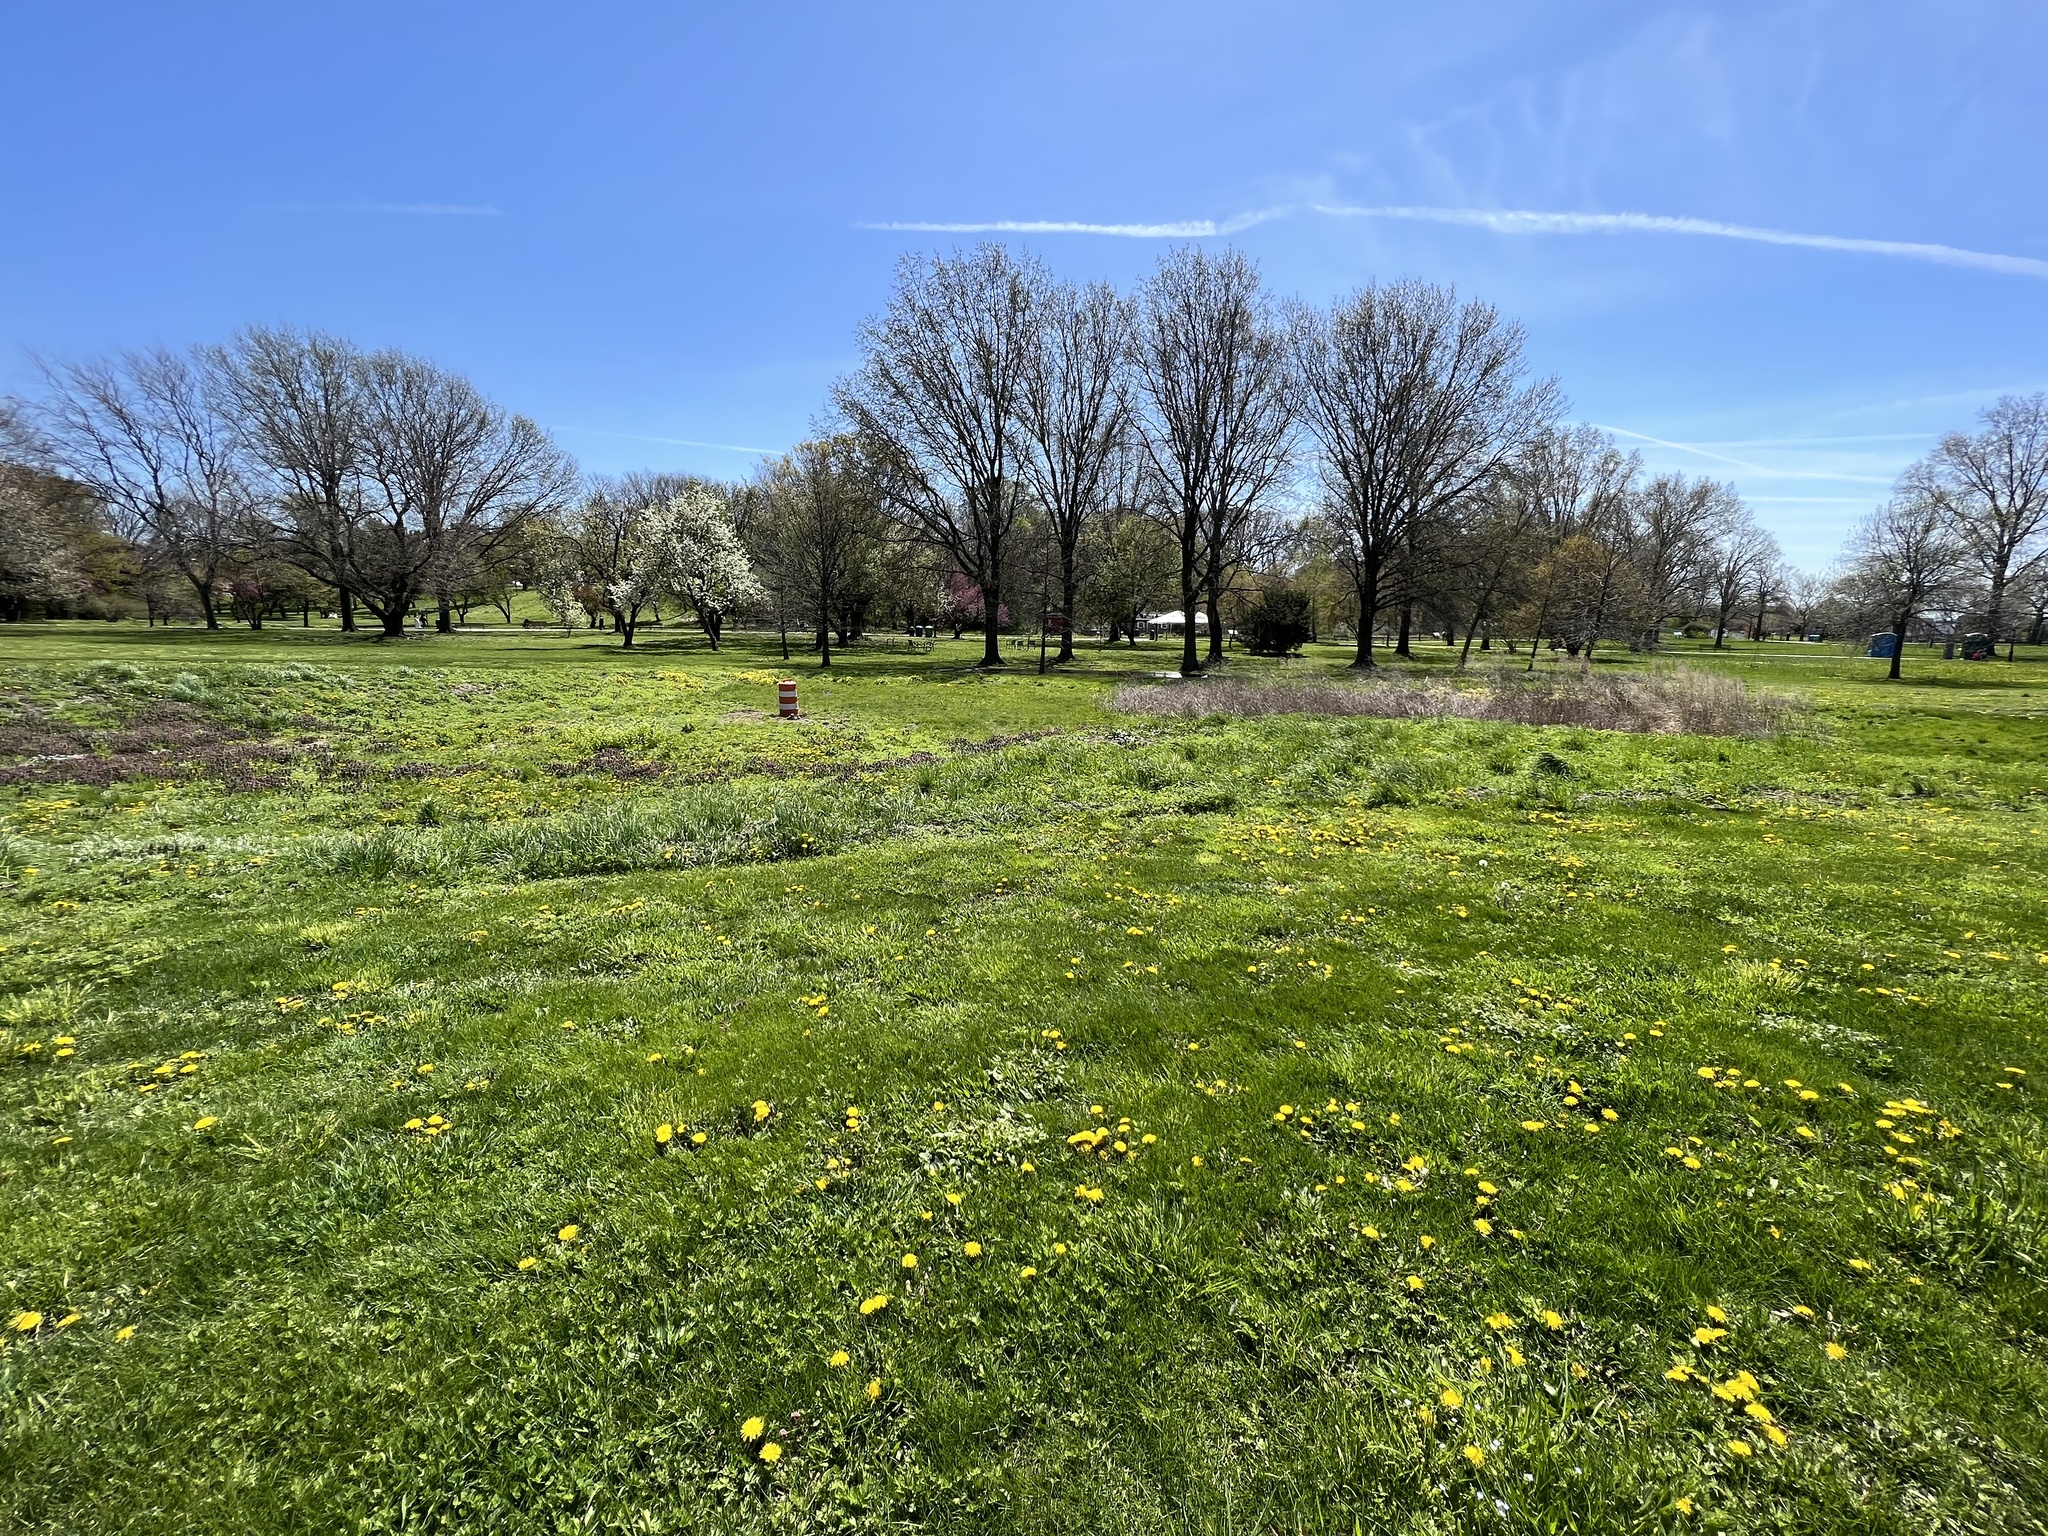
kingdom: Plantae
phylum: Tracheophyta
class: Magnoliopsida
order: Asterales
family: Asteraceae
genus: Taraxacum
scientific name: Taraxacum officinale
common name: Common dandelion
